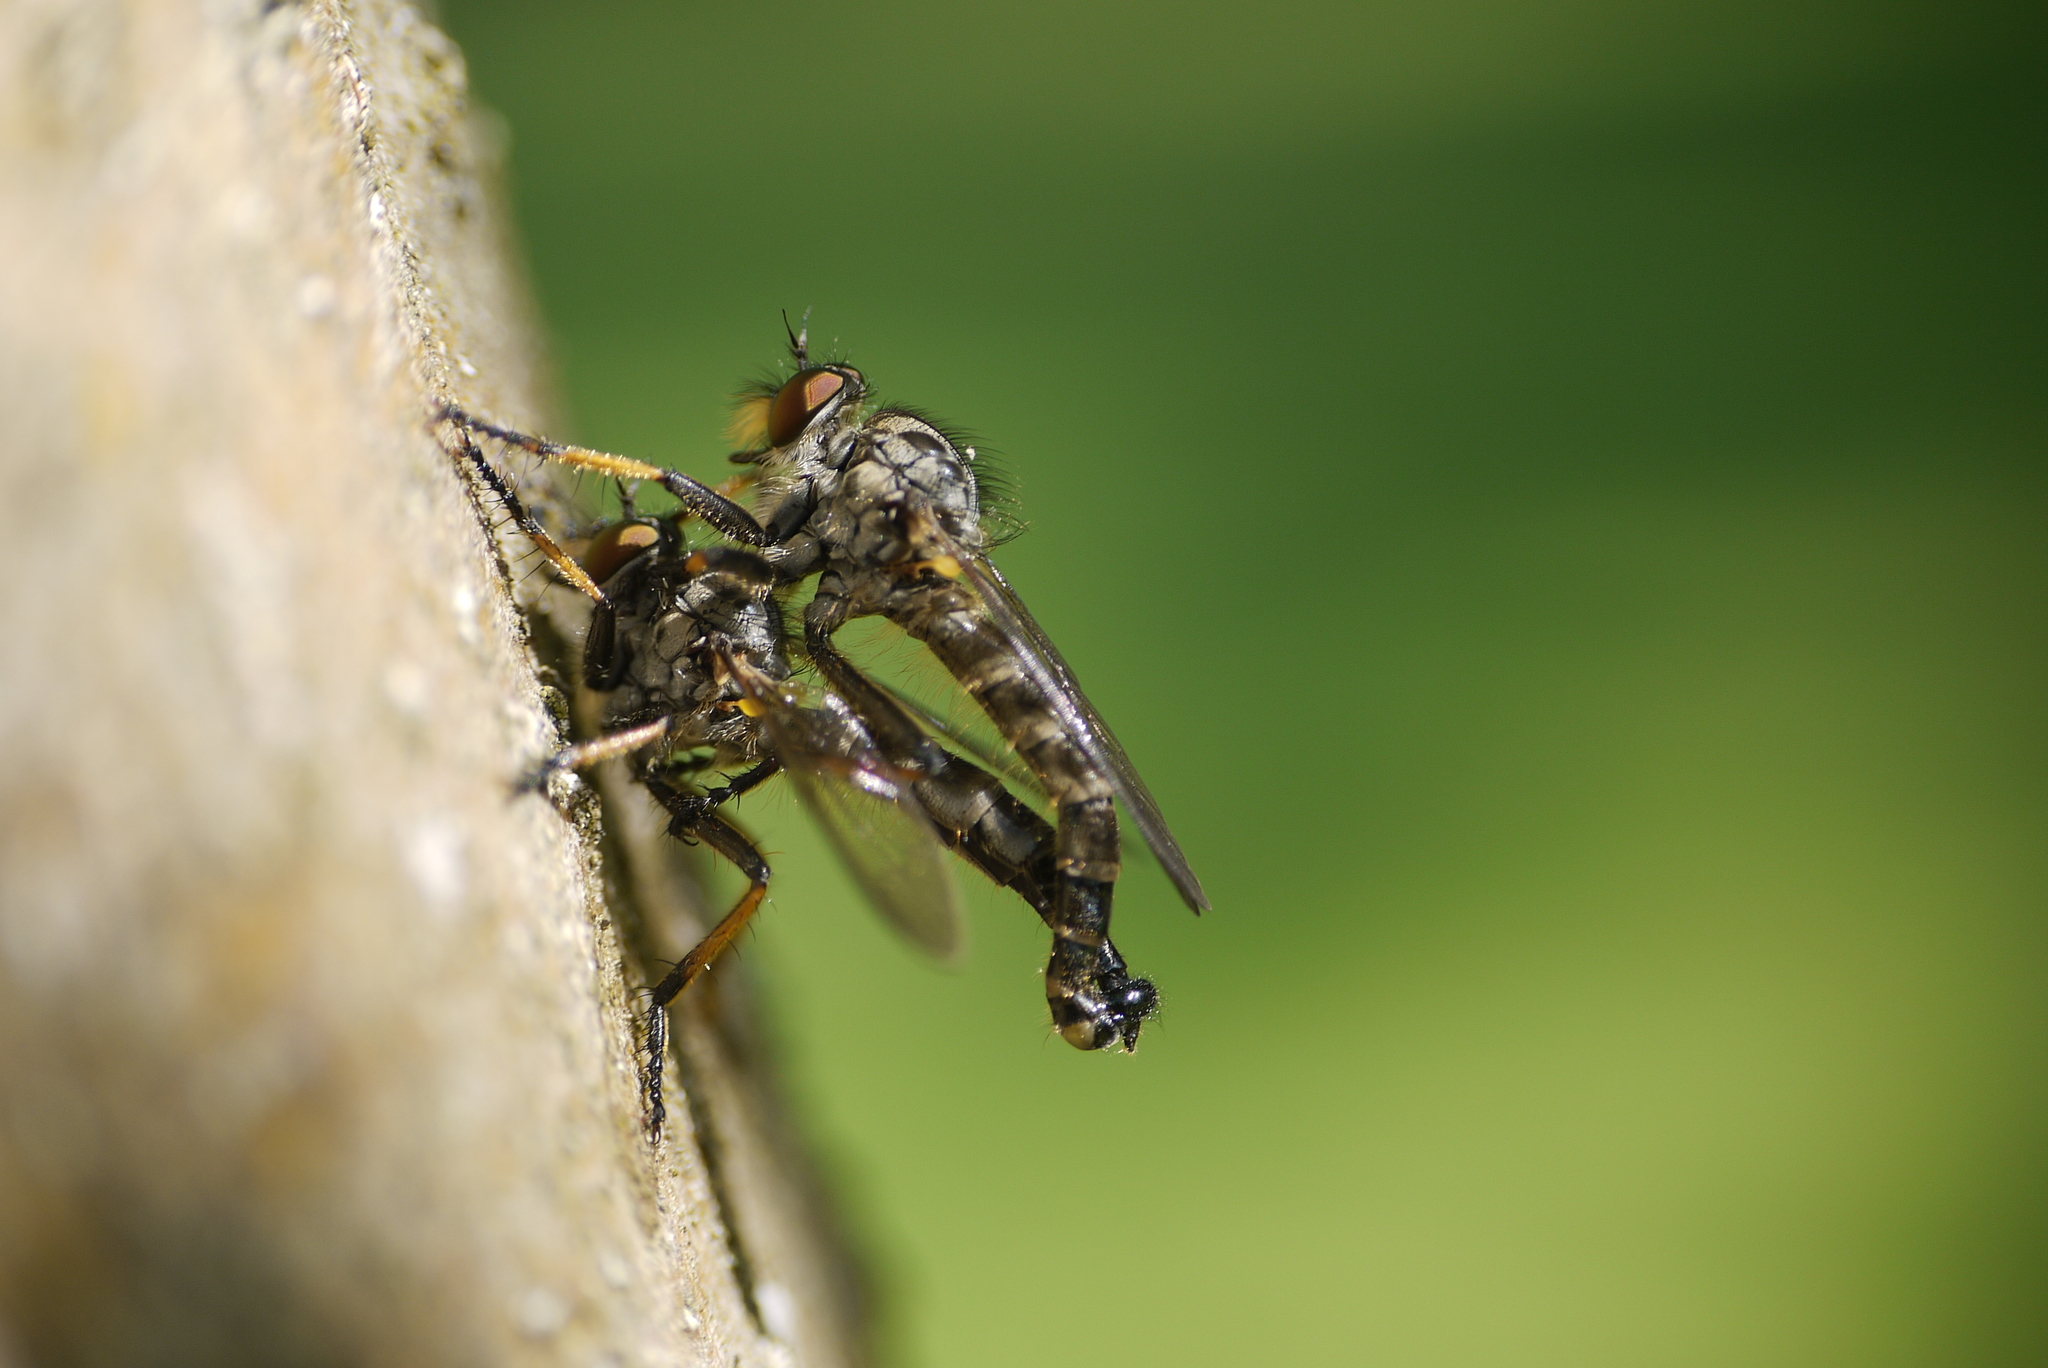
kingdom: Animalia
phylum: Arthropoda
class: Insecta
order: Diptera
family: Asilidae
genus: Neoitamus
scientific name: Neoitamus cyanurus
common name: Common awl robberfly
